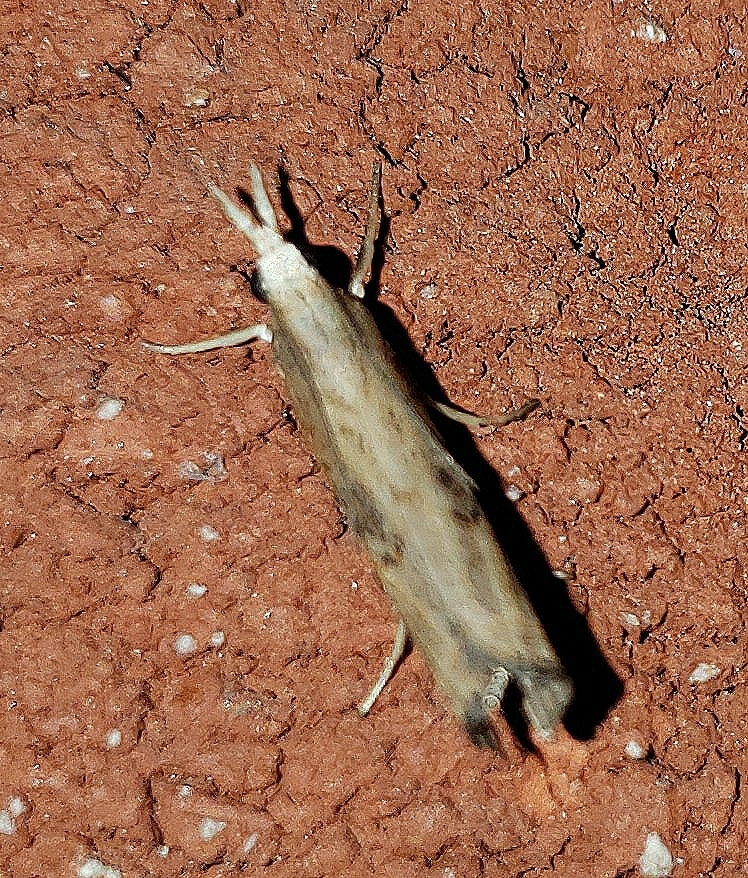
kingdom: Animalia
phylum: Arthropoda
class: Insecta
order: Lepidoptera
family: Crambidae
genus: Parapediasia
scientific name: Parapediasia teterellus
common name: Bluegrass webworm moth
